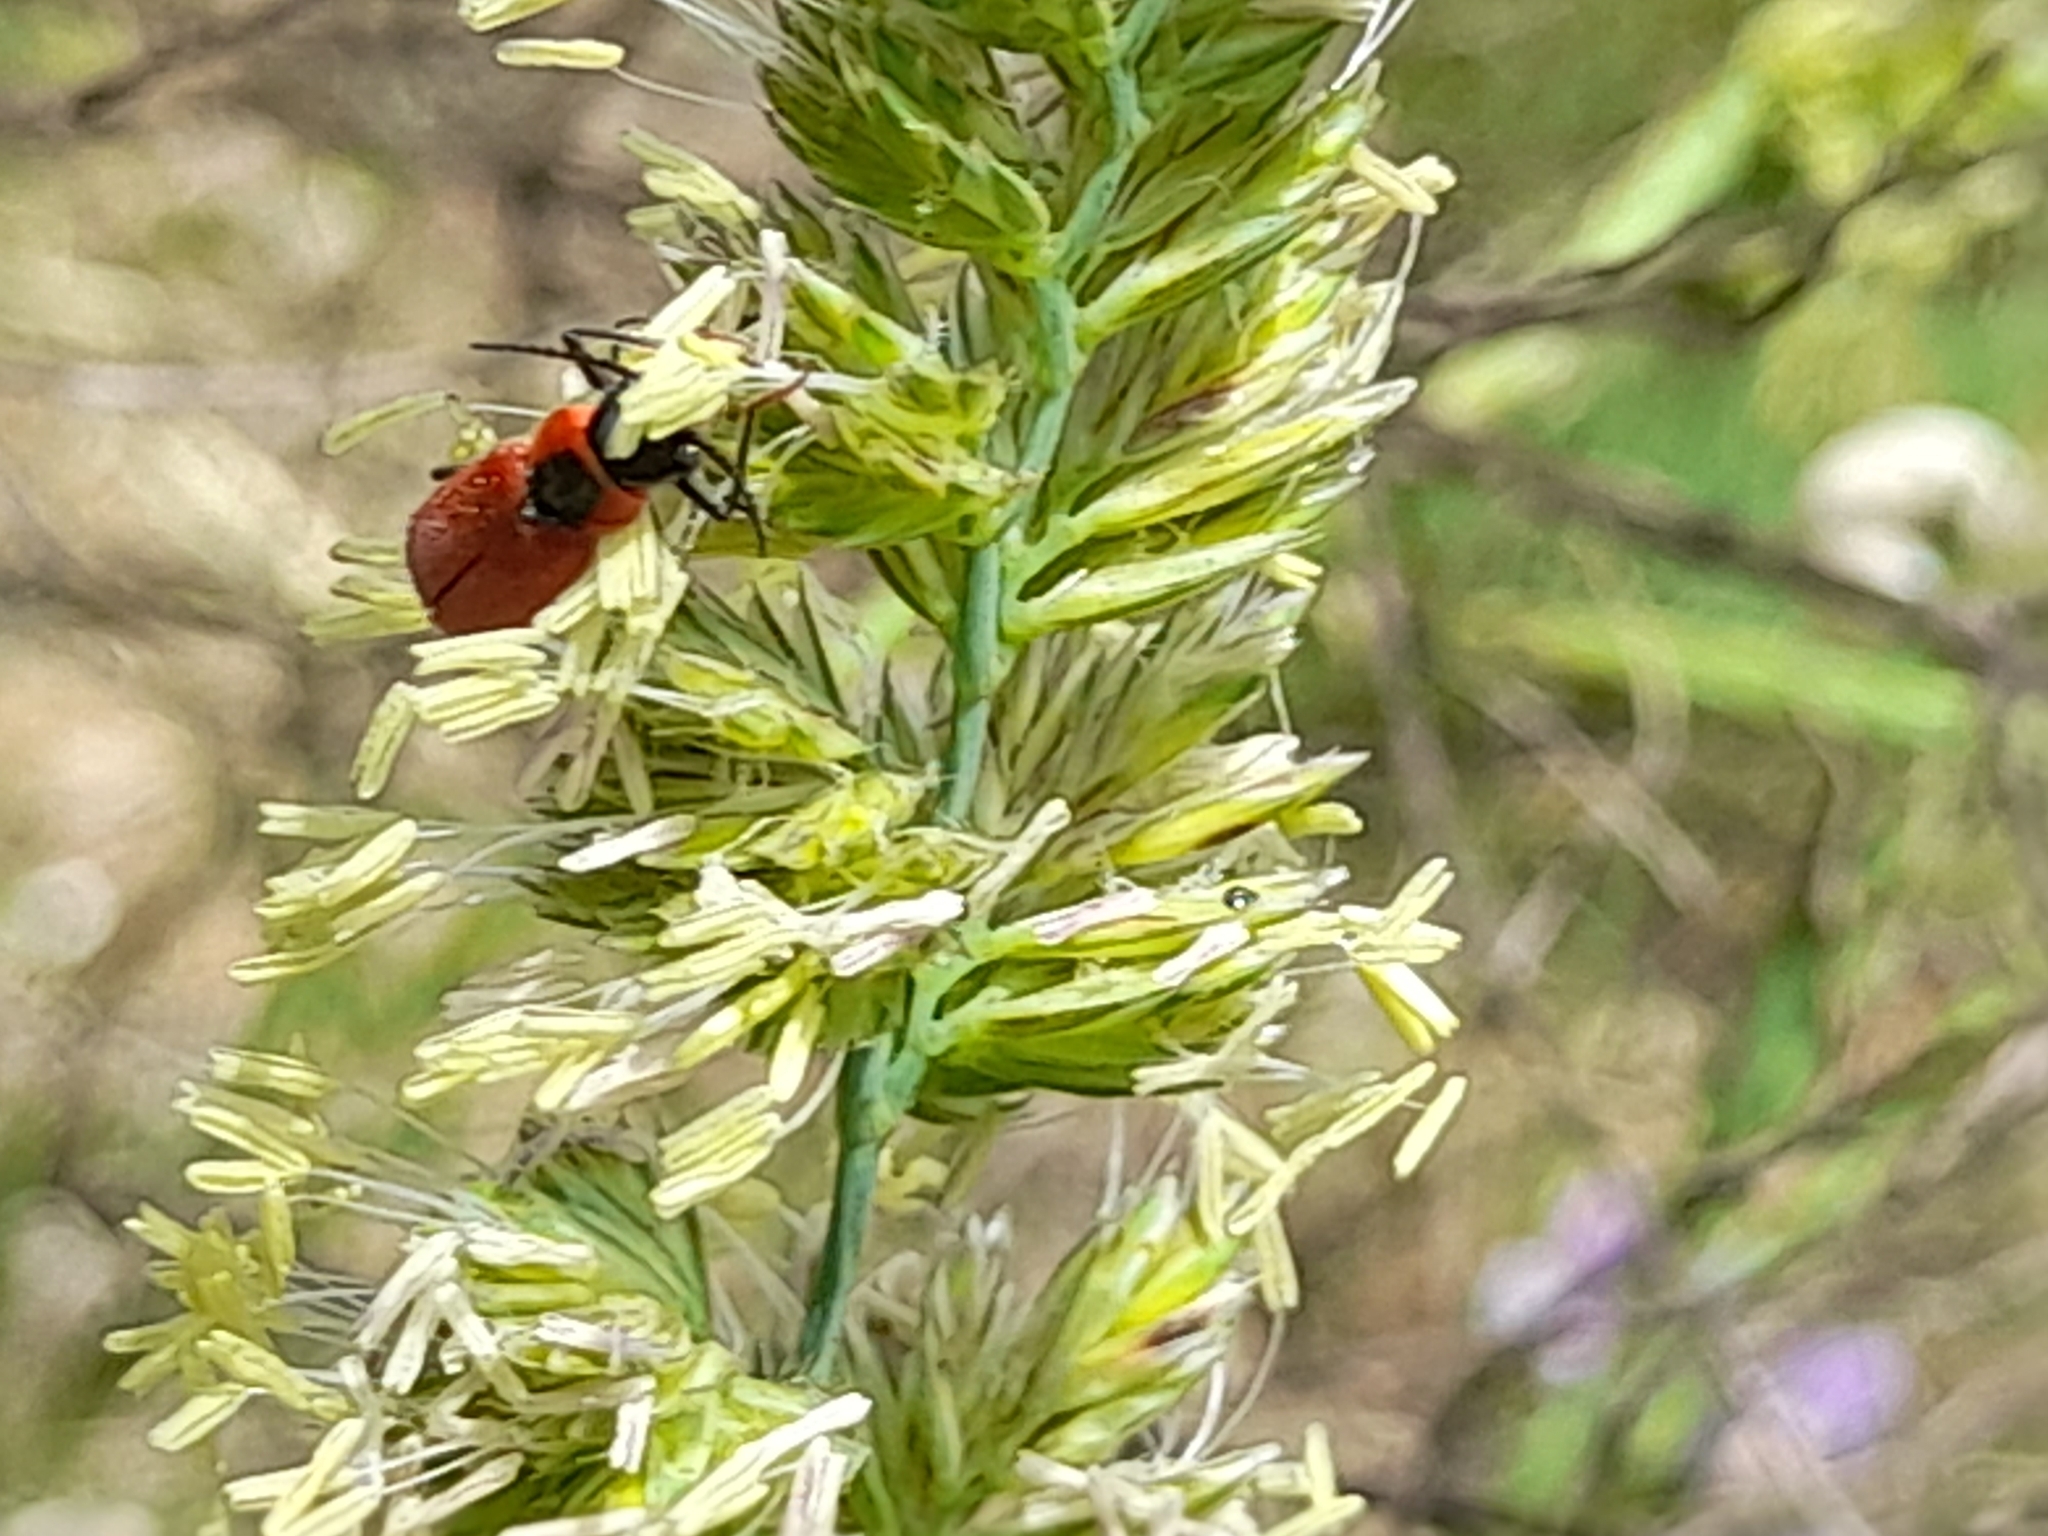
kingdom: Animalia
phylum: Arthropoda
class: Insecta
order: Coleoptera
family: Malachiidae
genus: Clanoptilus
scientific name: Clanoptilus rufus
